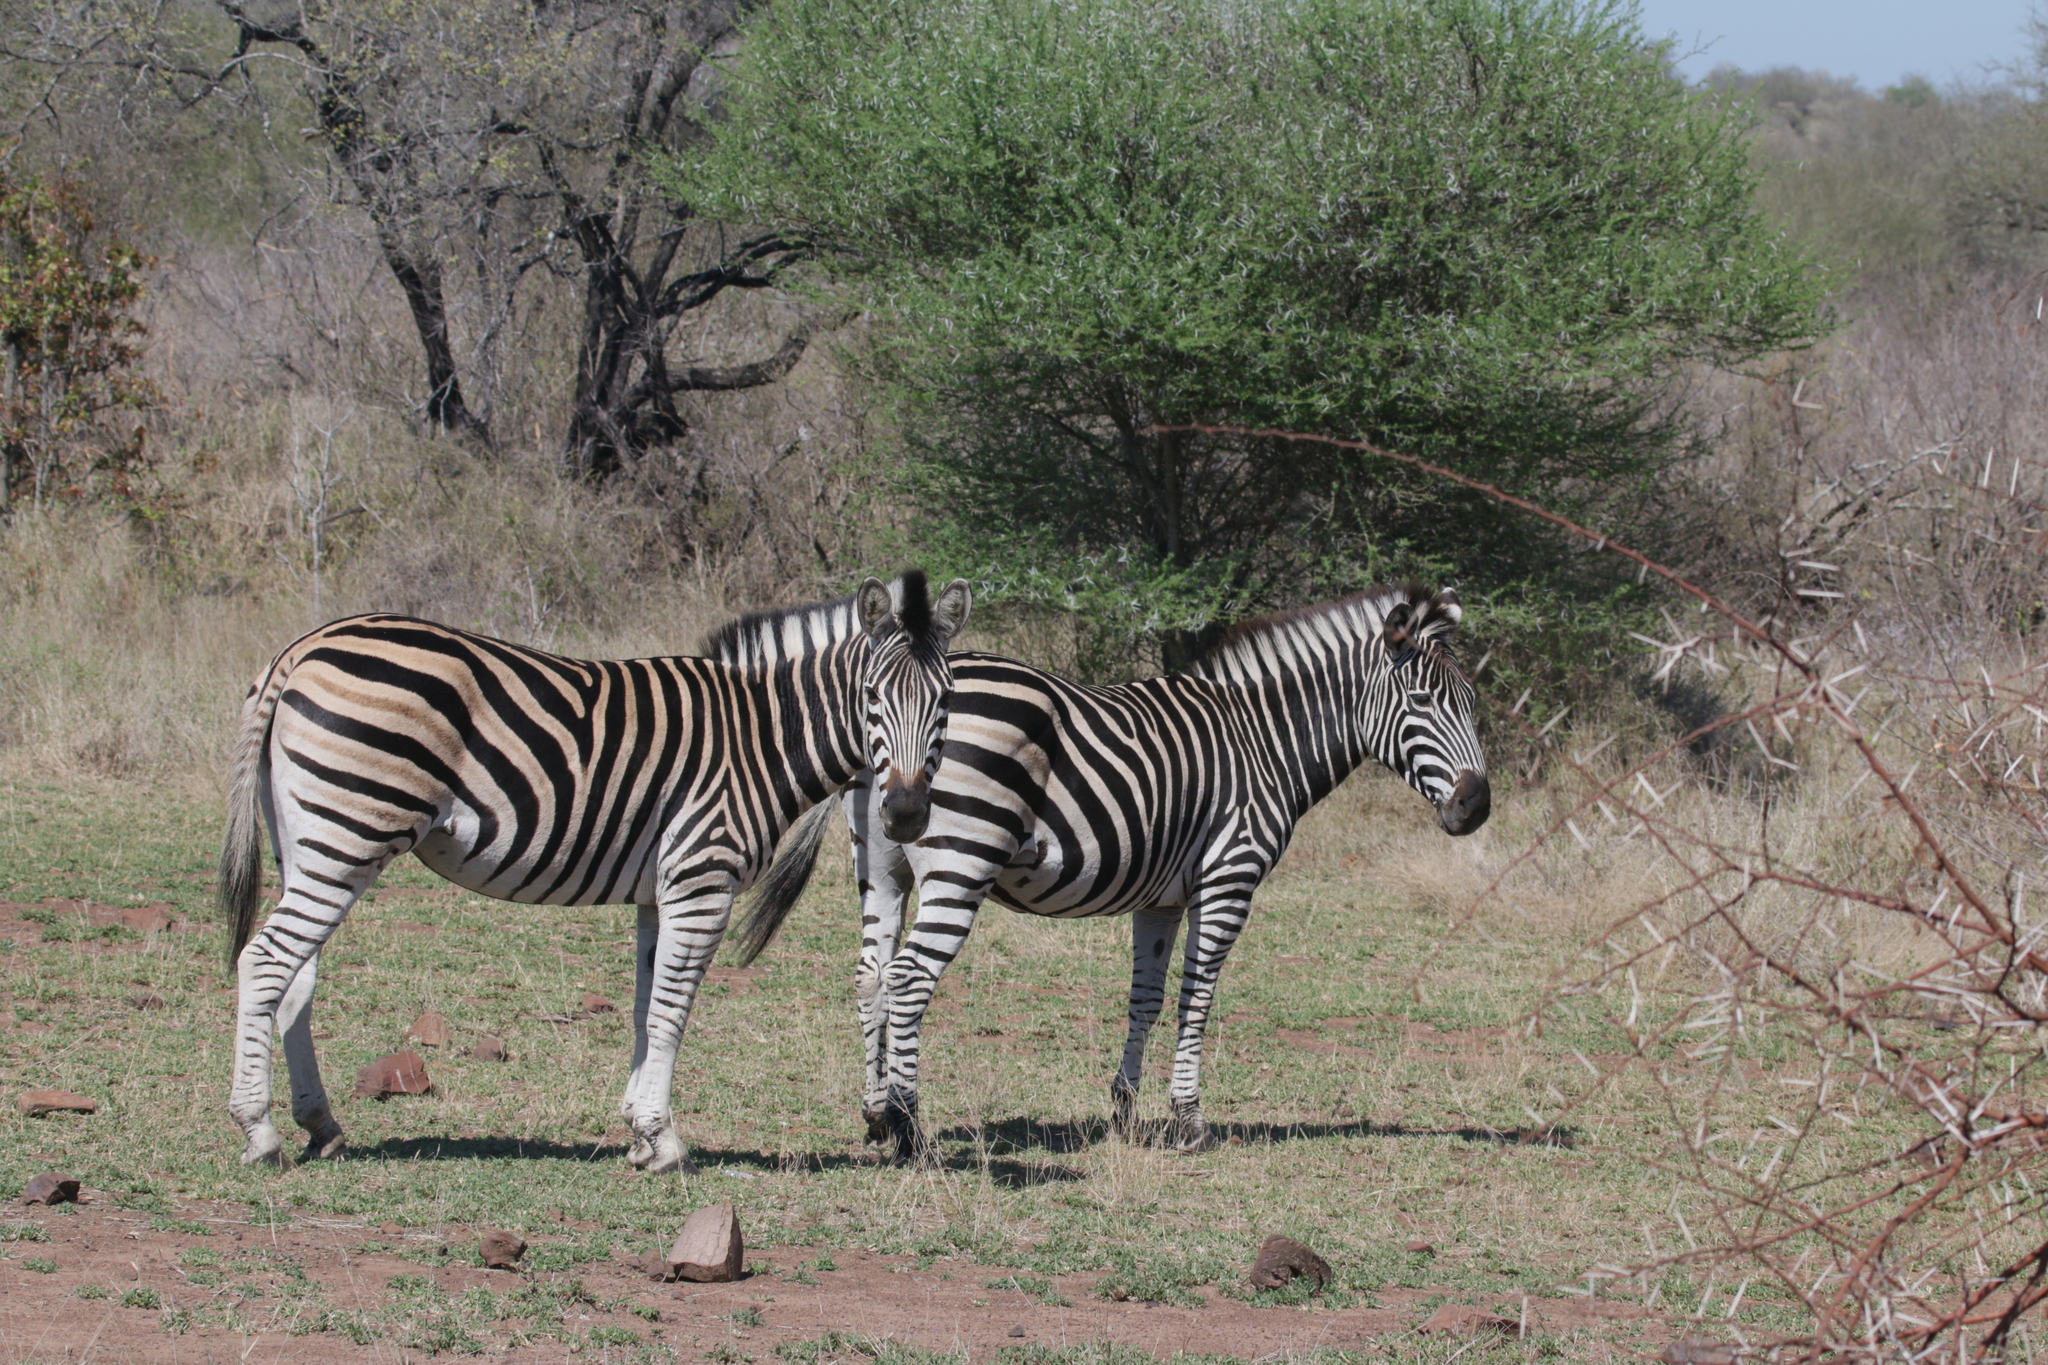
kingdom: Animalia
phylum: Chordata
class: Mammalia
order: Perissodactyla
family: Equidae
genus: Equus
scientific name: Equus quagga
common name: Plains zebra
